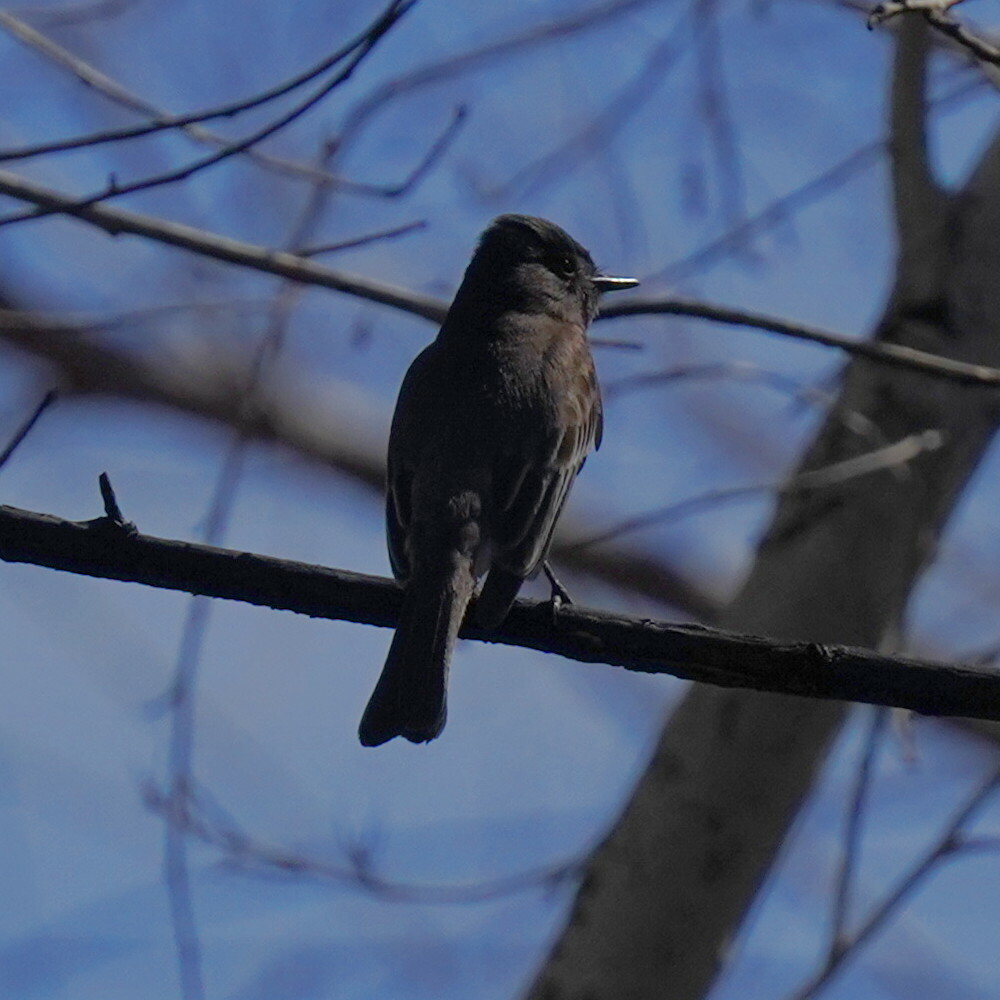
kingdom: Animalia
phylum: Chordata
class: Aves
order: Passeriformes
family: Tyrannidae
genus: Sayornis
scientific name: Sayornis nigricans
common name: Black phoebe
